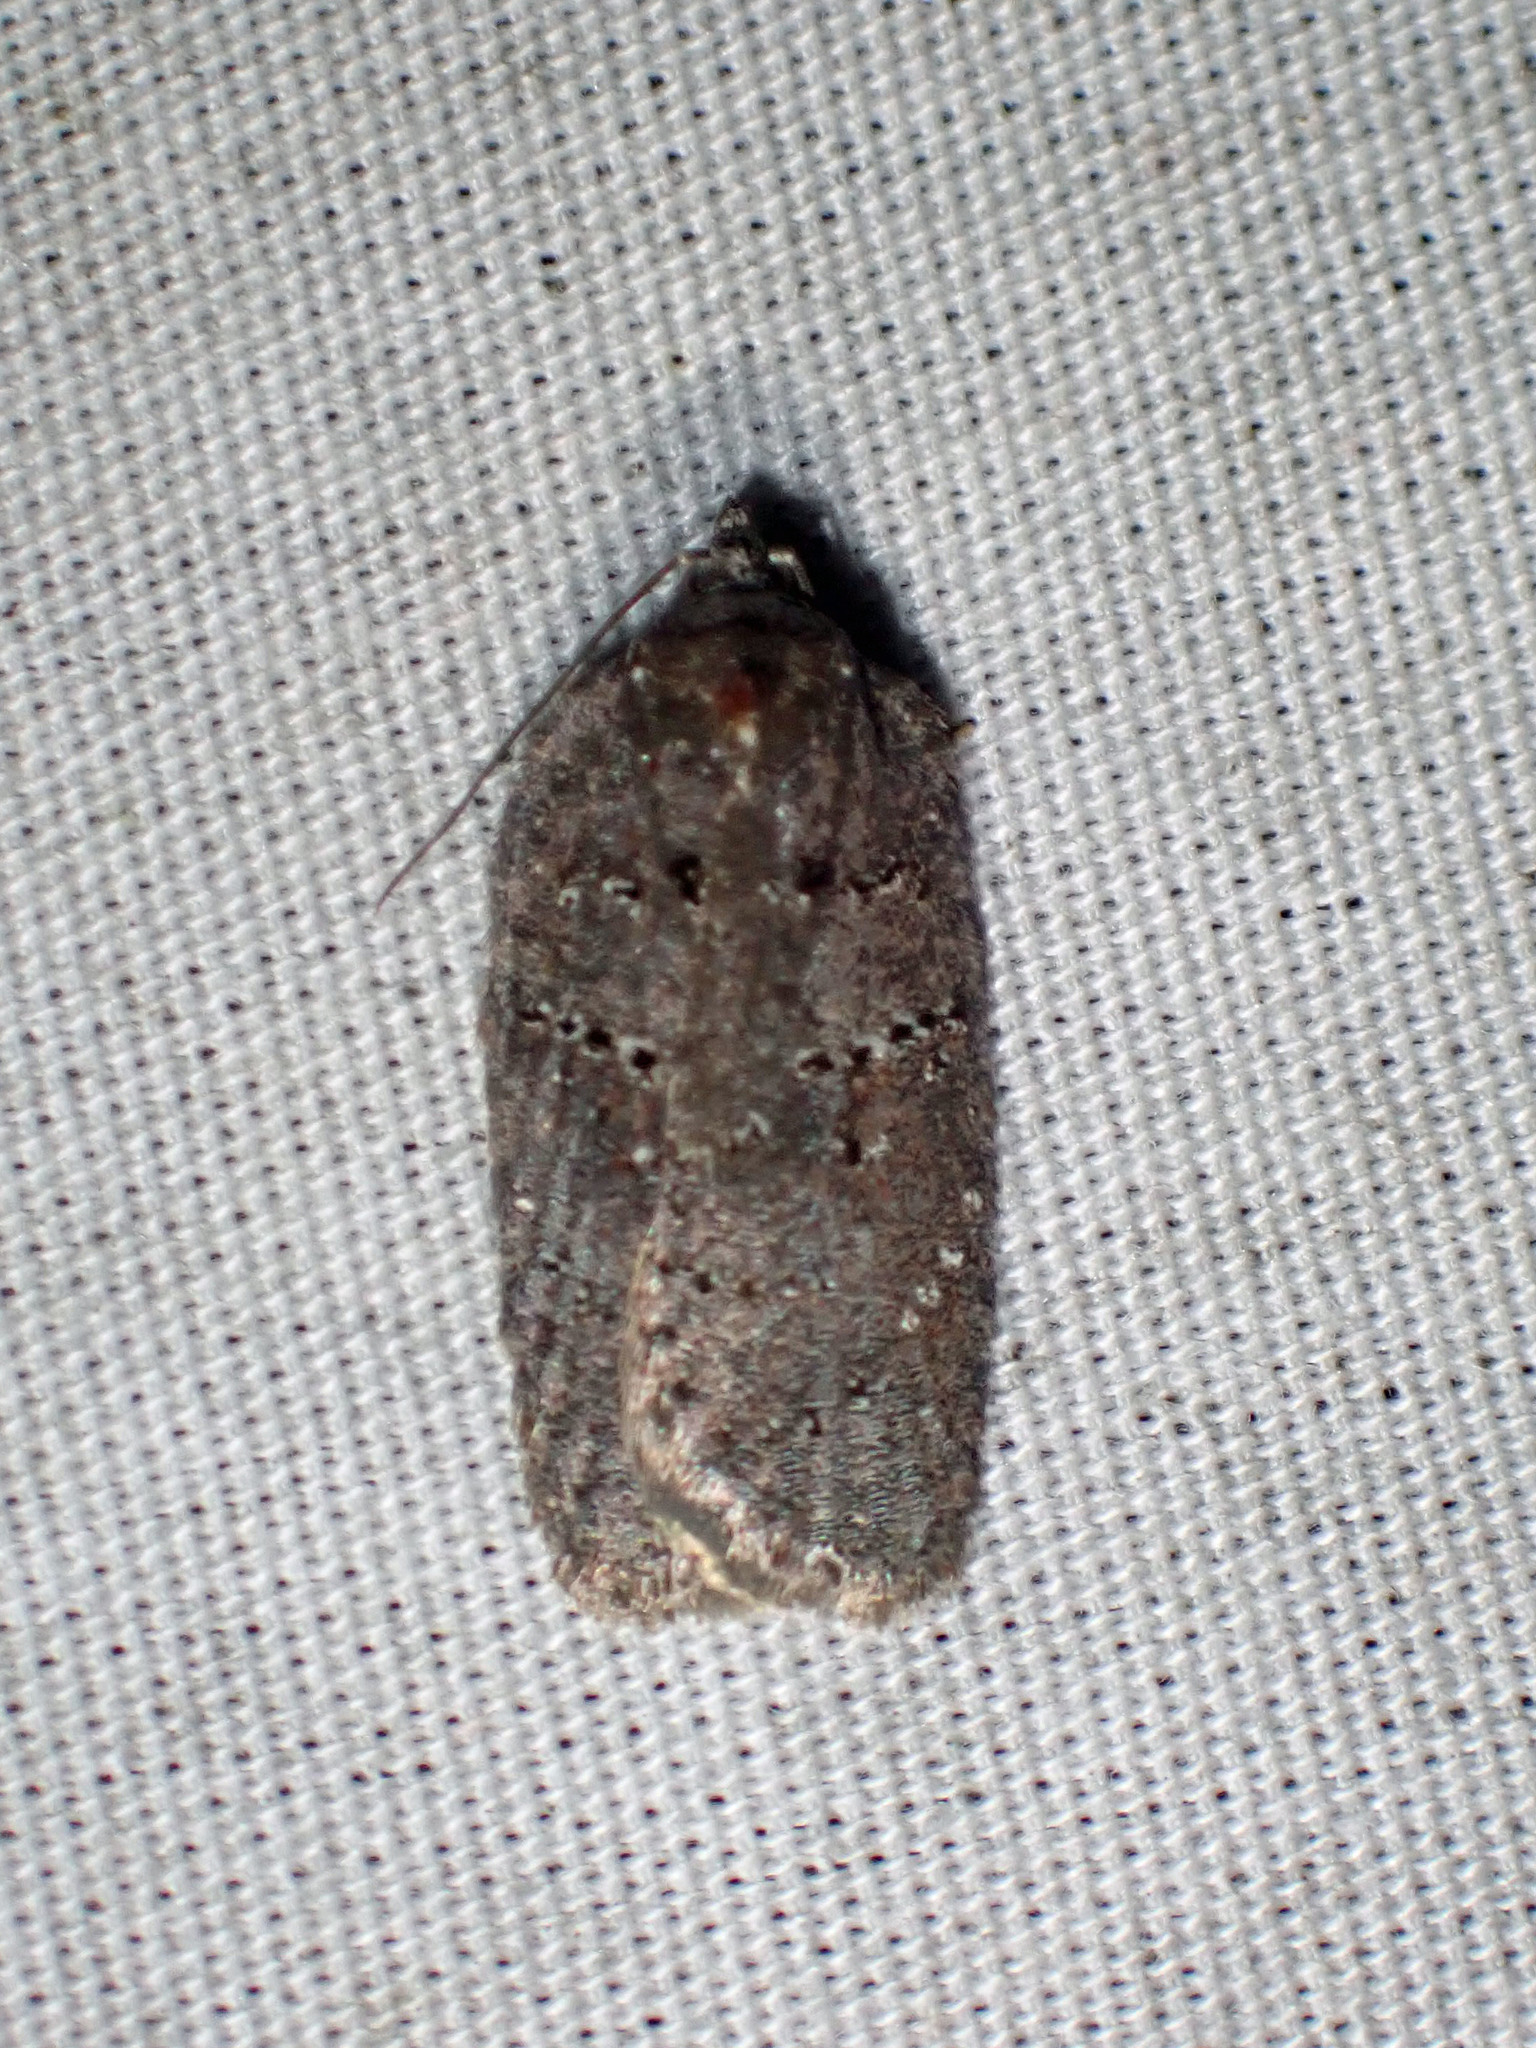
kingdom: Animalia
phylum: Arthropoda
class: Insecta
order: Lepidoptera
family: Tortricidae
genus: Acleris
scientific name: Acleris caliginosana
